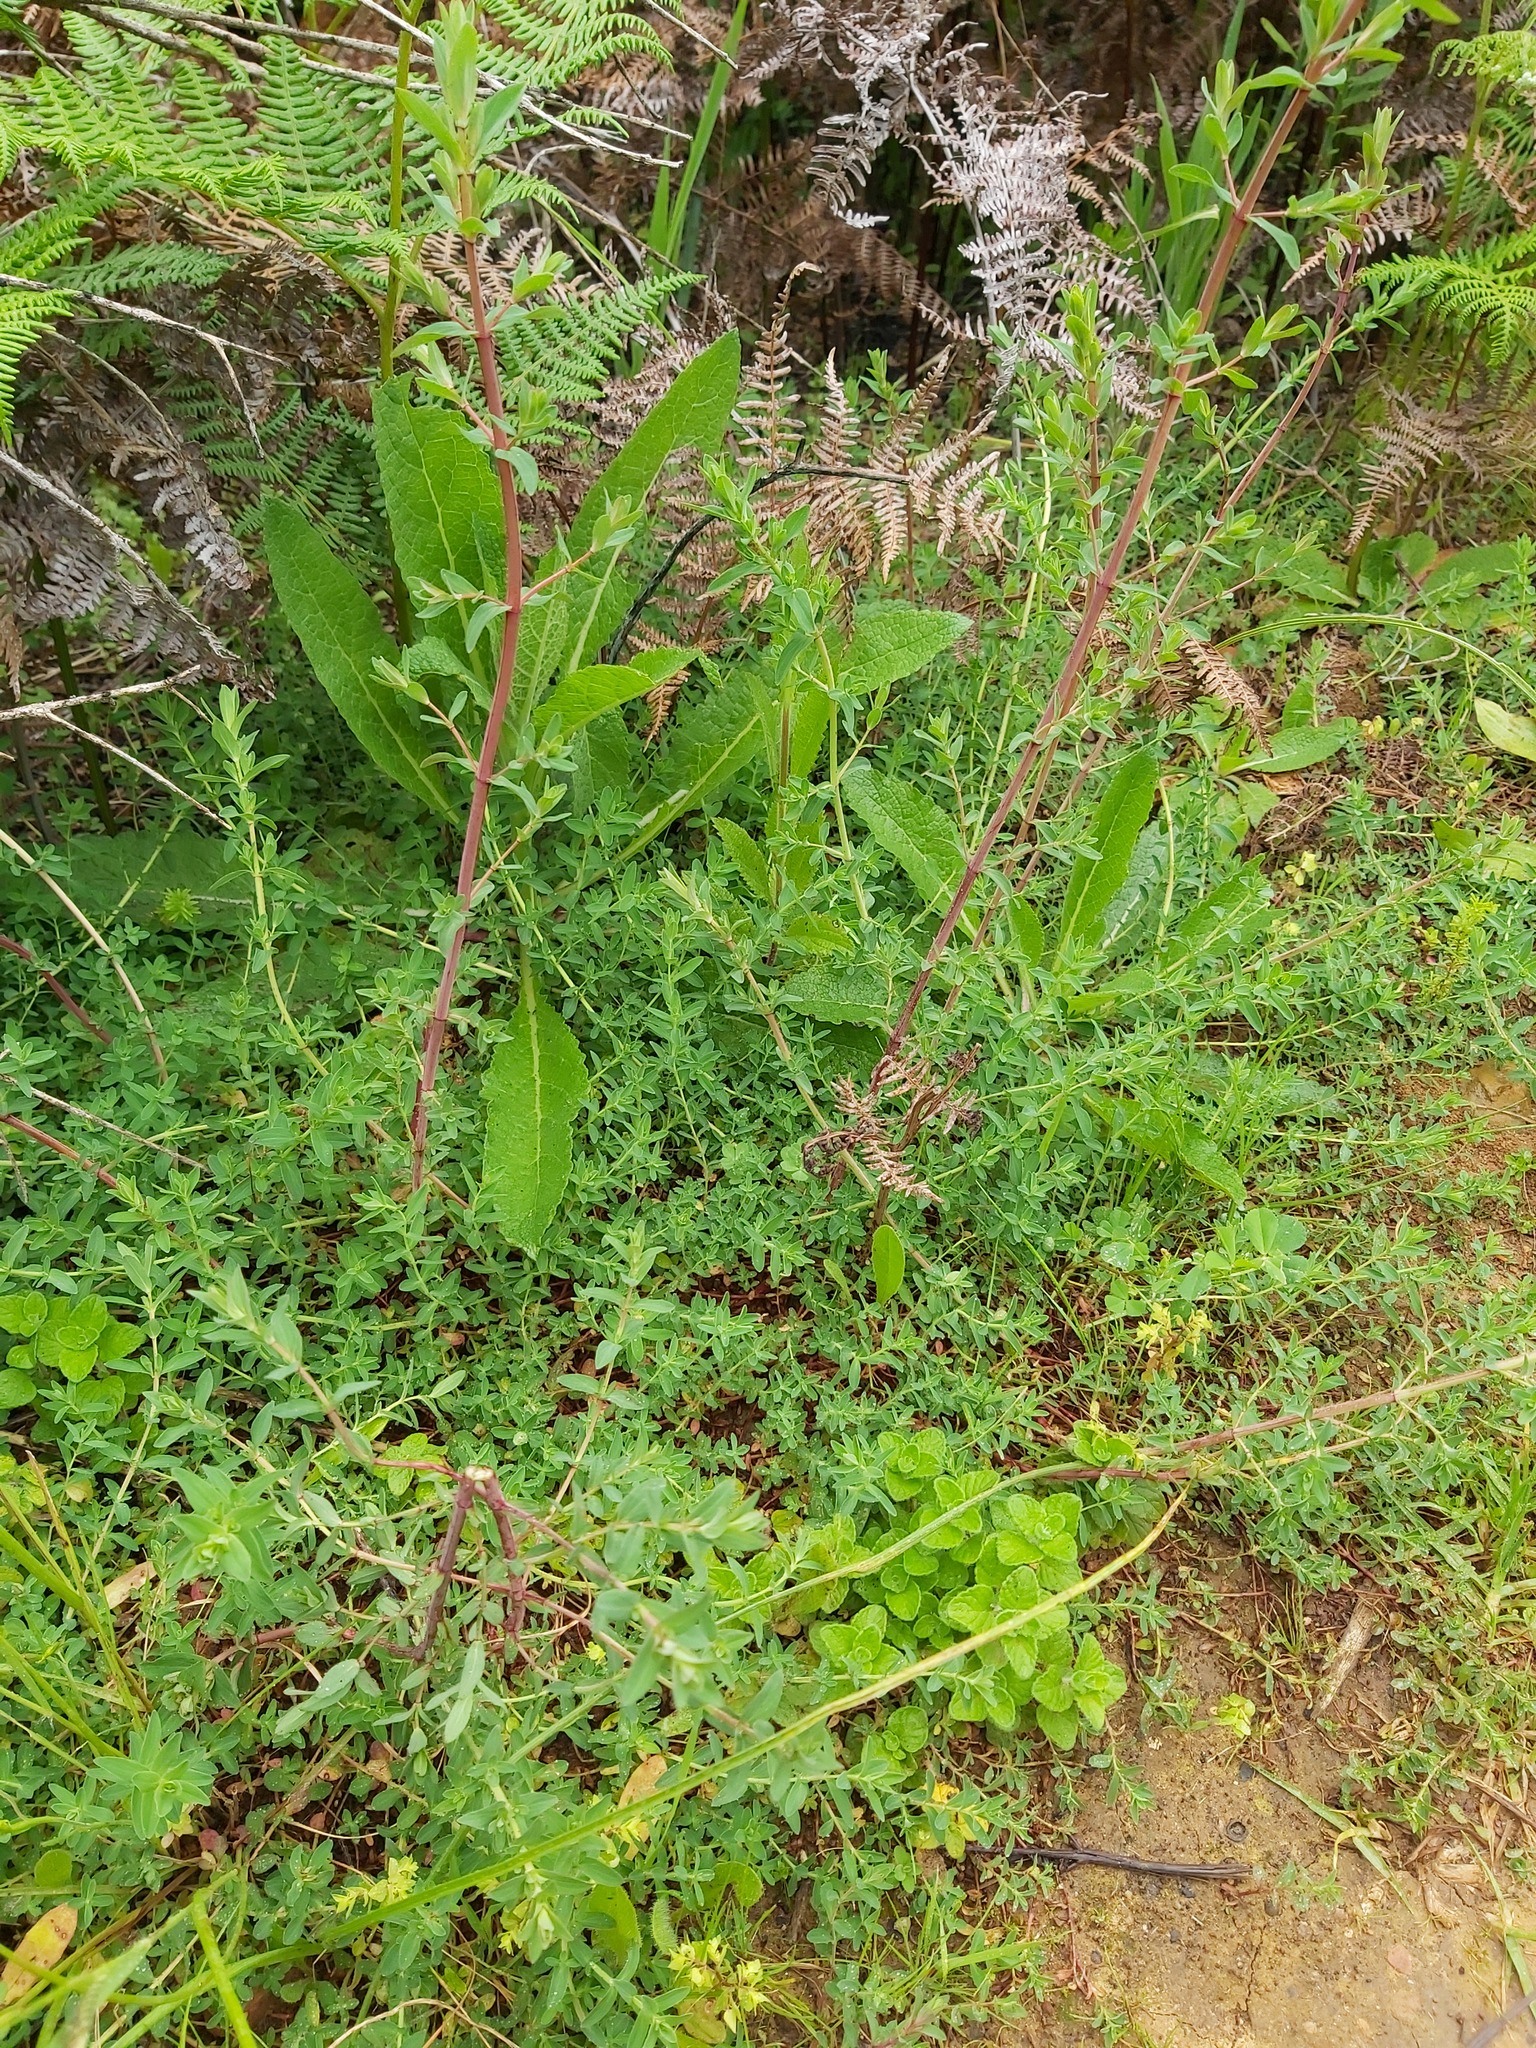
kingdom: Plantae
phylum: Tracheophyta
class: Magnoliopsida
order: Malpighiales
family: Hypericaceae
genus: Hypericum
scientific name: Hypericum perforatum
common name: Common st. johnswort
